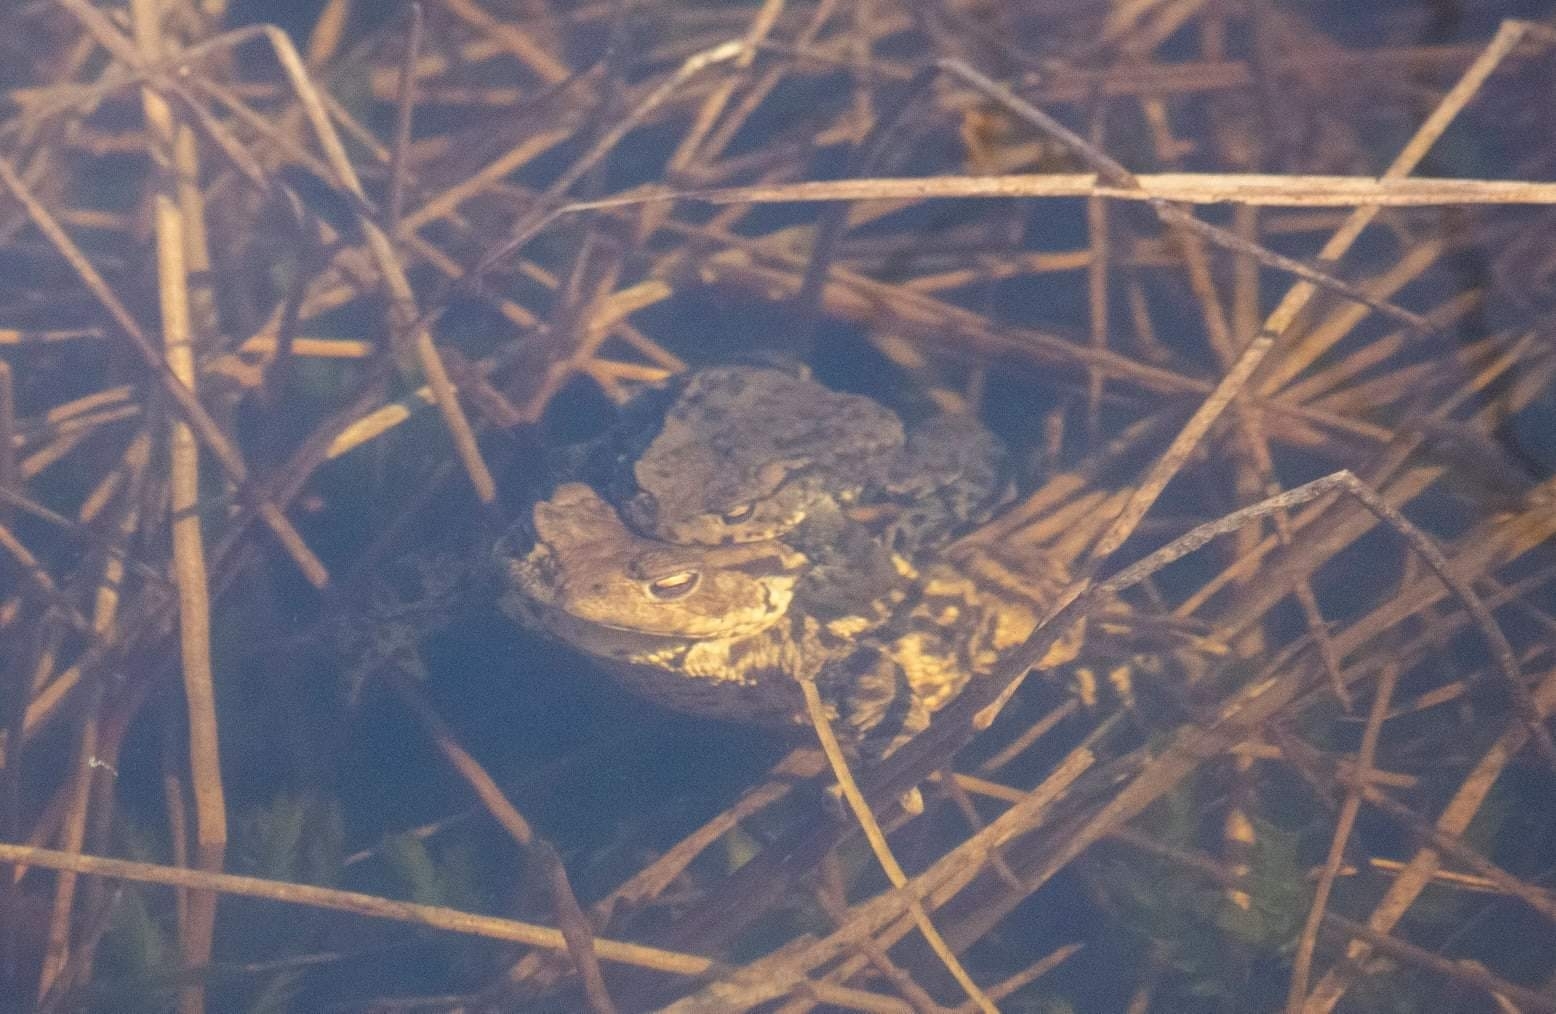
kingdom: Animalia
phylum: Chordata
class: Amphibia
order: Anura
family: Bufonidae
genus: Bufo
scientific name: Bufo bufo
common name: Common toad
